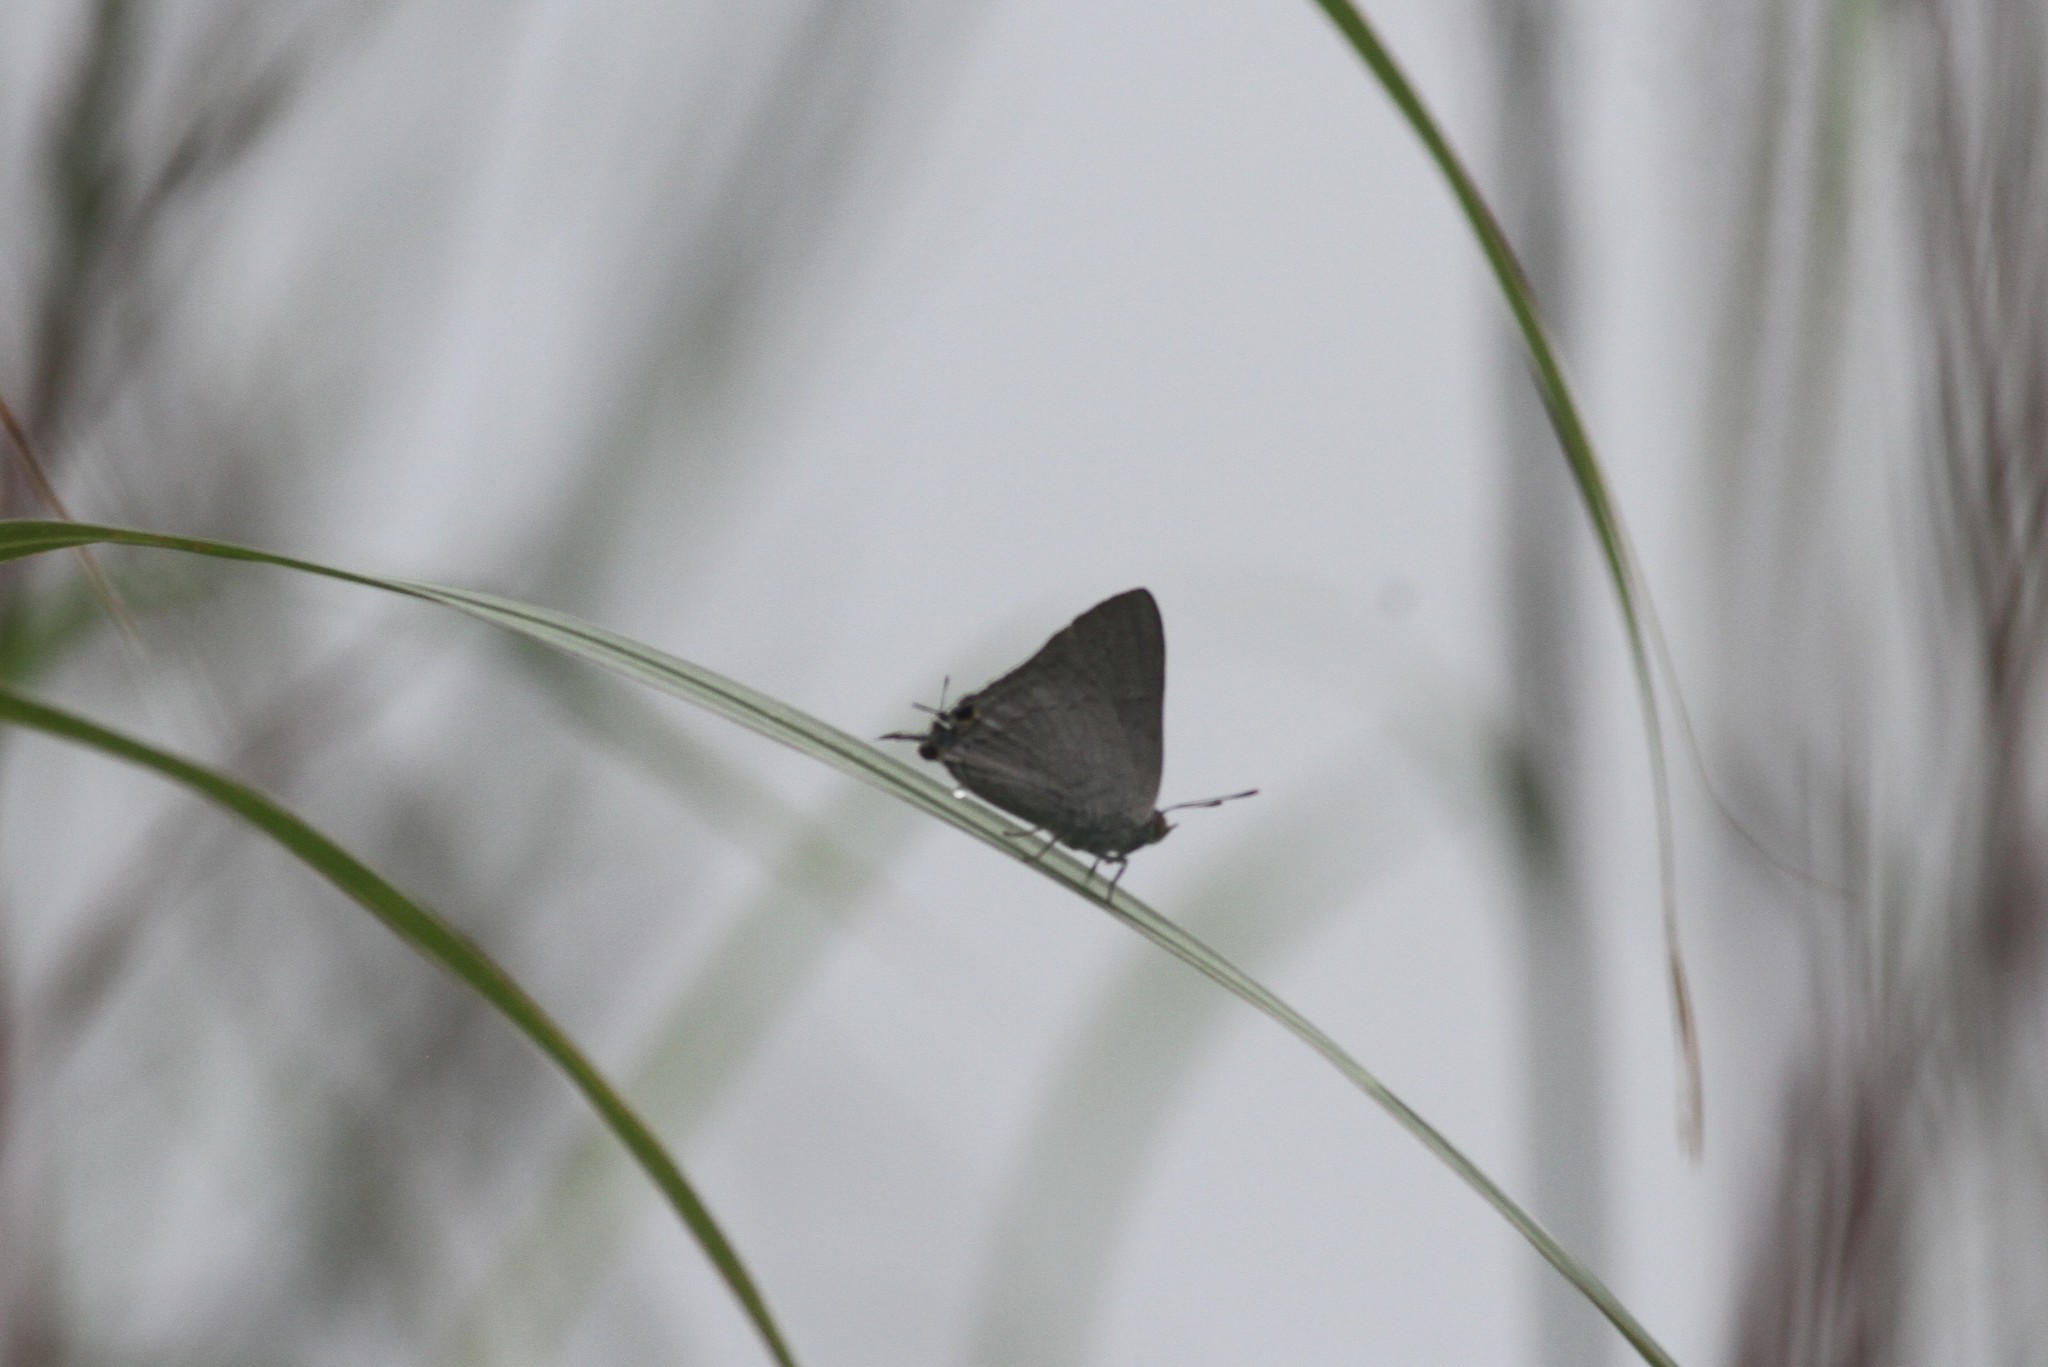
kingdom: Animalia
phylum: Arthropoda
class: Insecta
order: Lepidoptera
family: Lycaenidae
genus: Tajuria
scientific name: Tajuria jehana
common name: Plains blue royal
